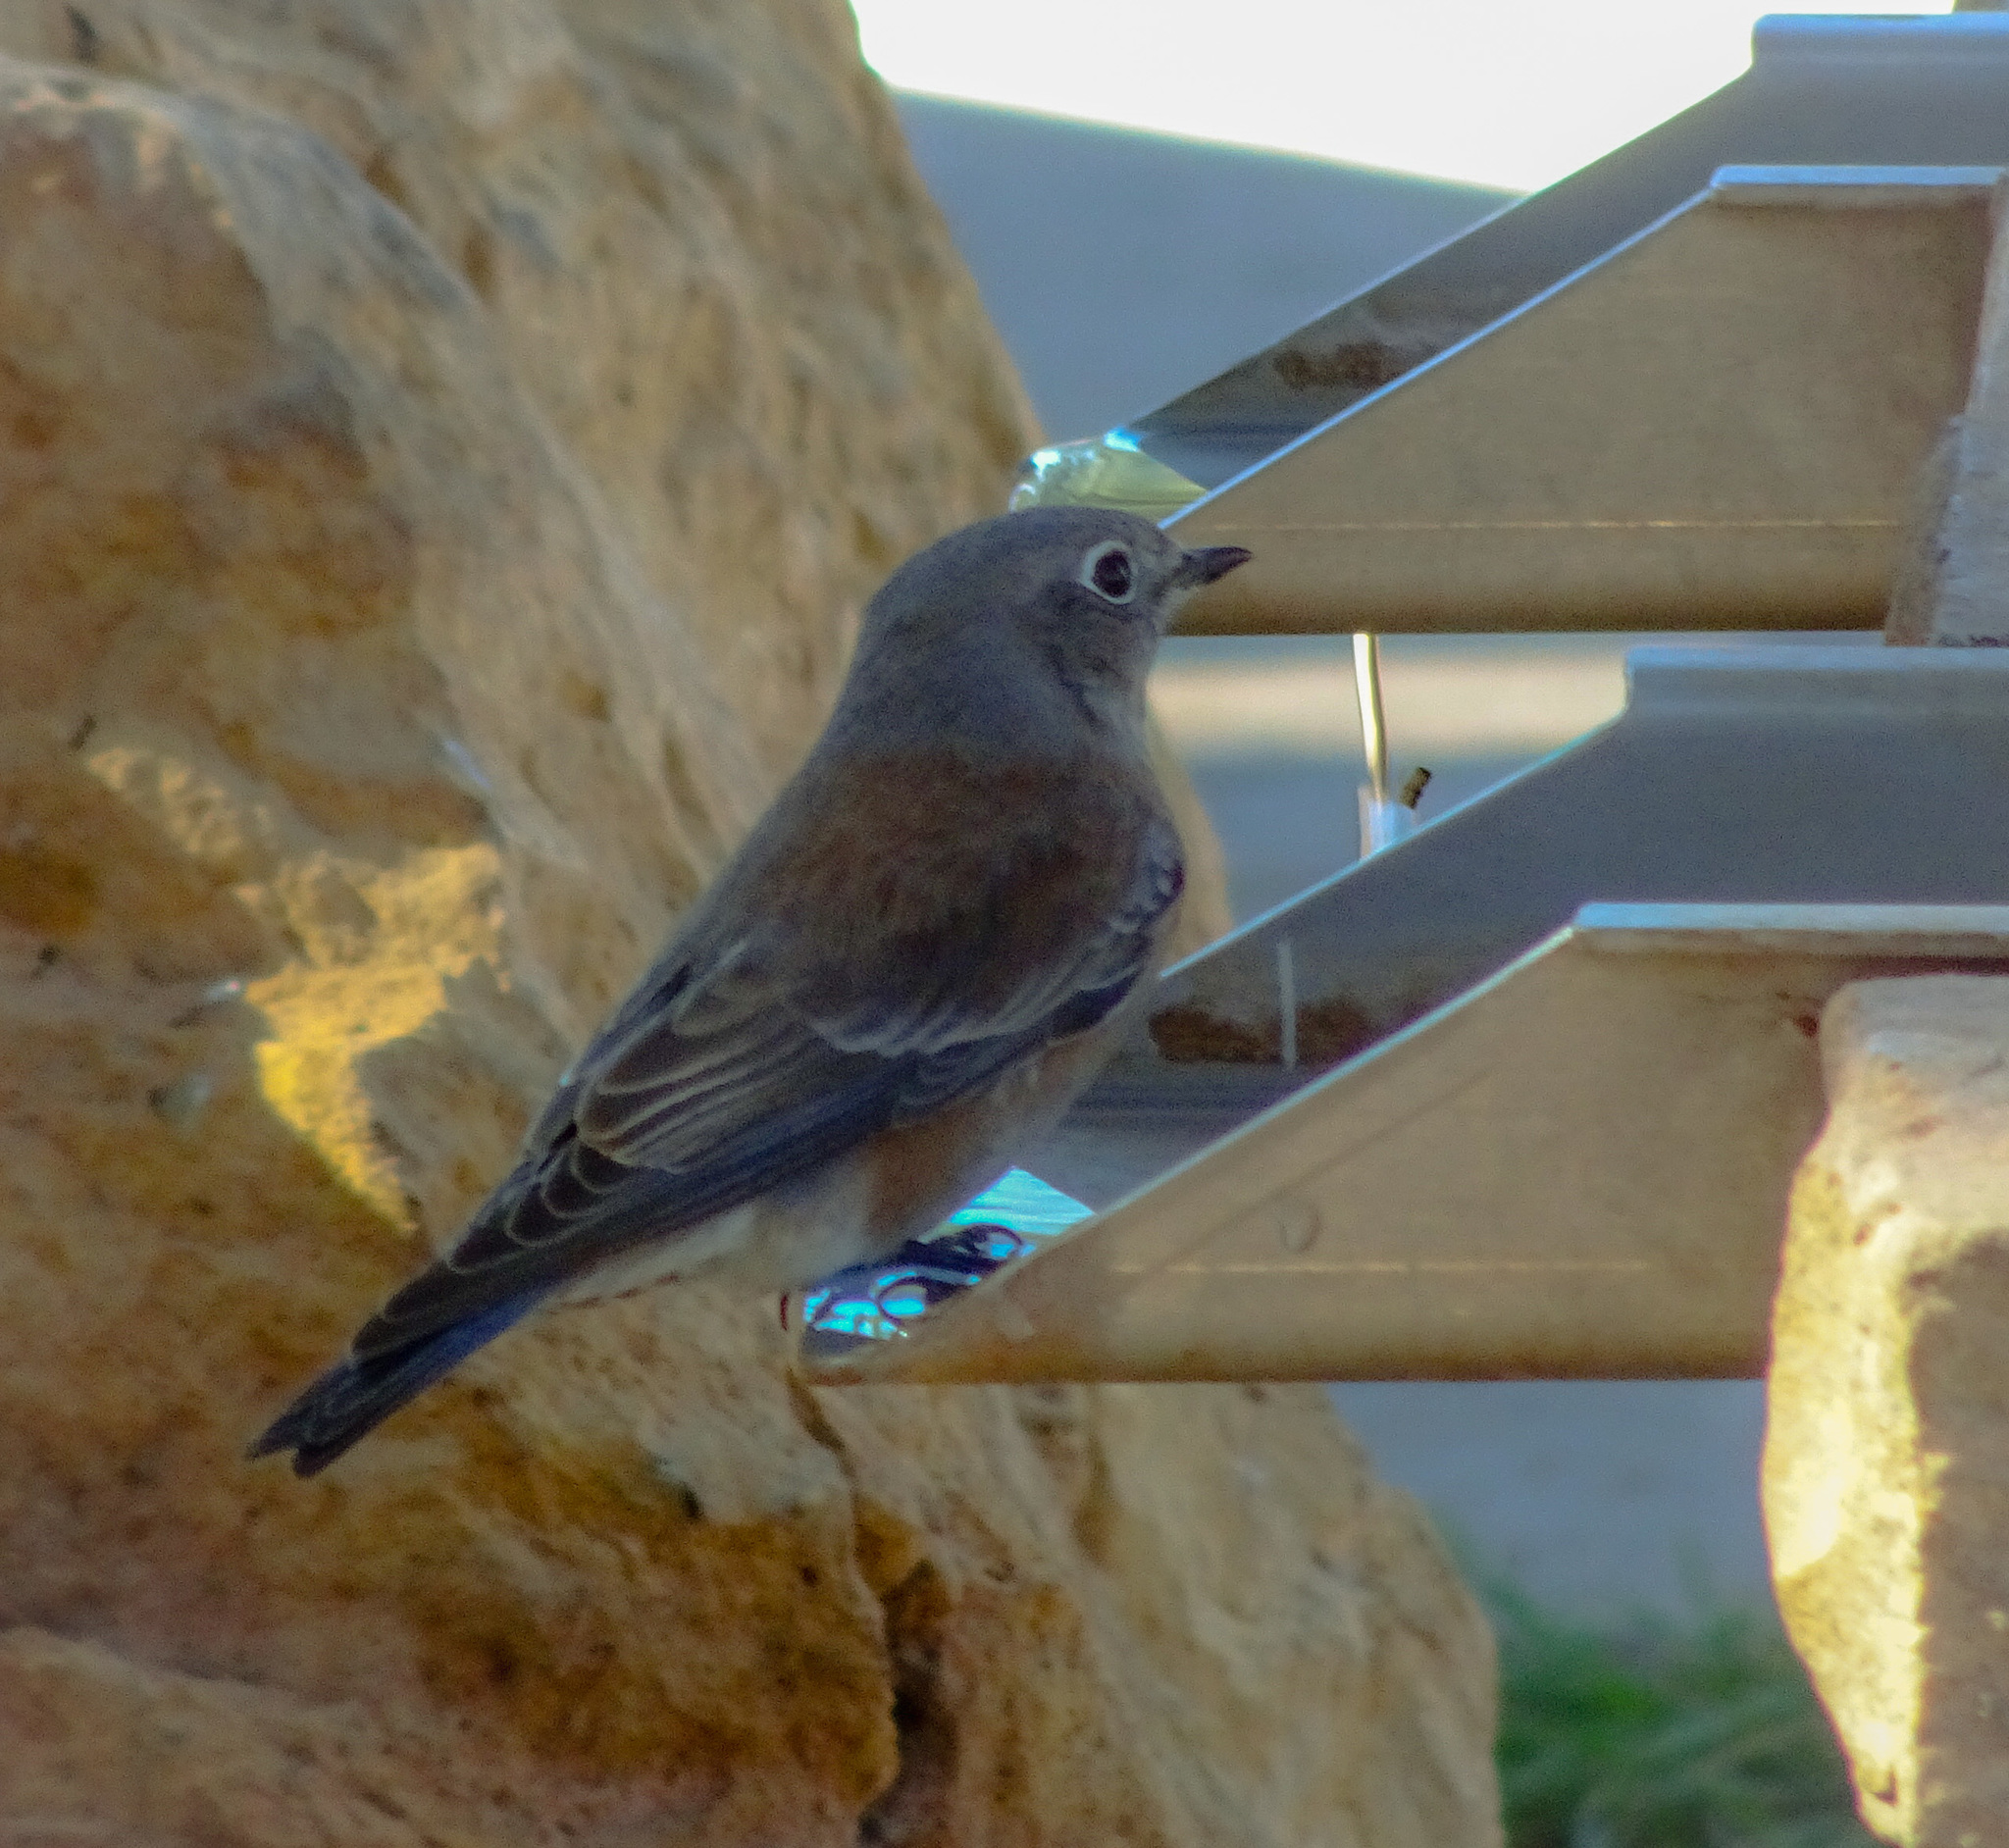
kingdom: Animalia
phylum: Chordata
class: Aves
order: Passeriformes
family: Turdidae
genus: Sialia
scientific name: Sialia mexicana
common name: Western bluebird
